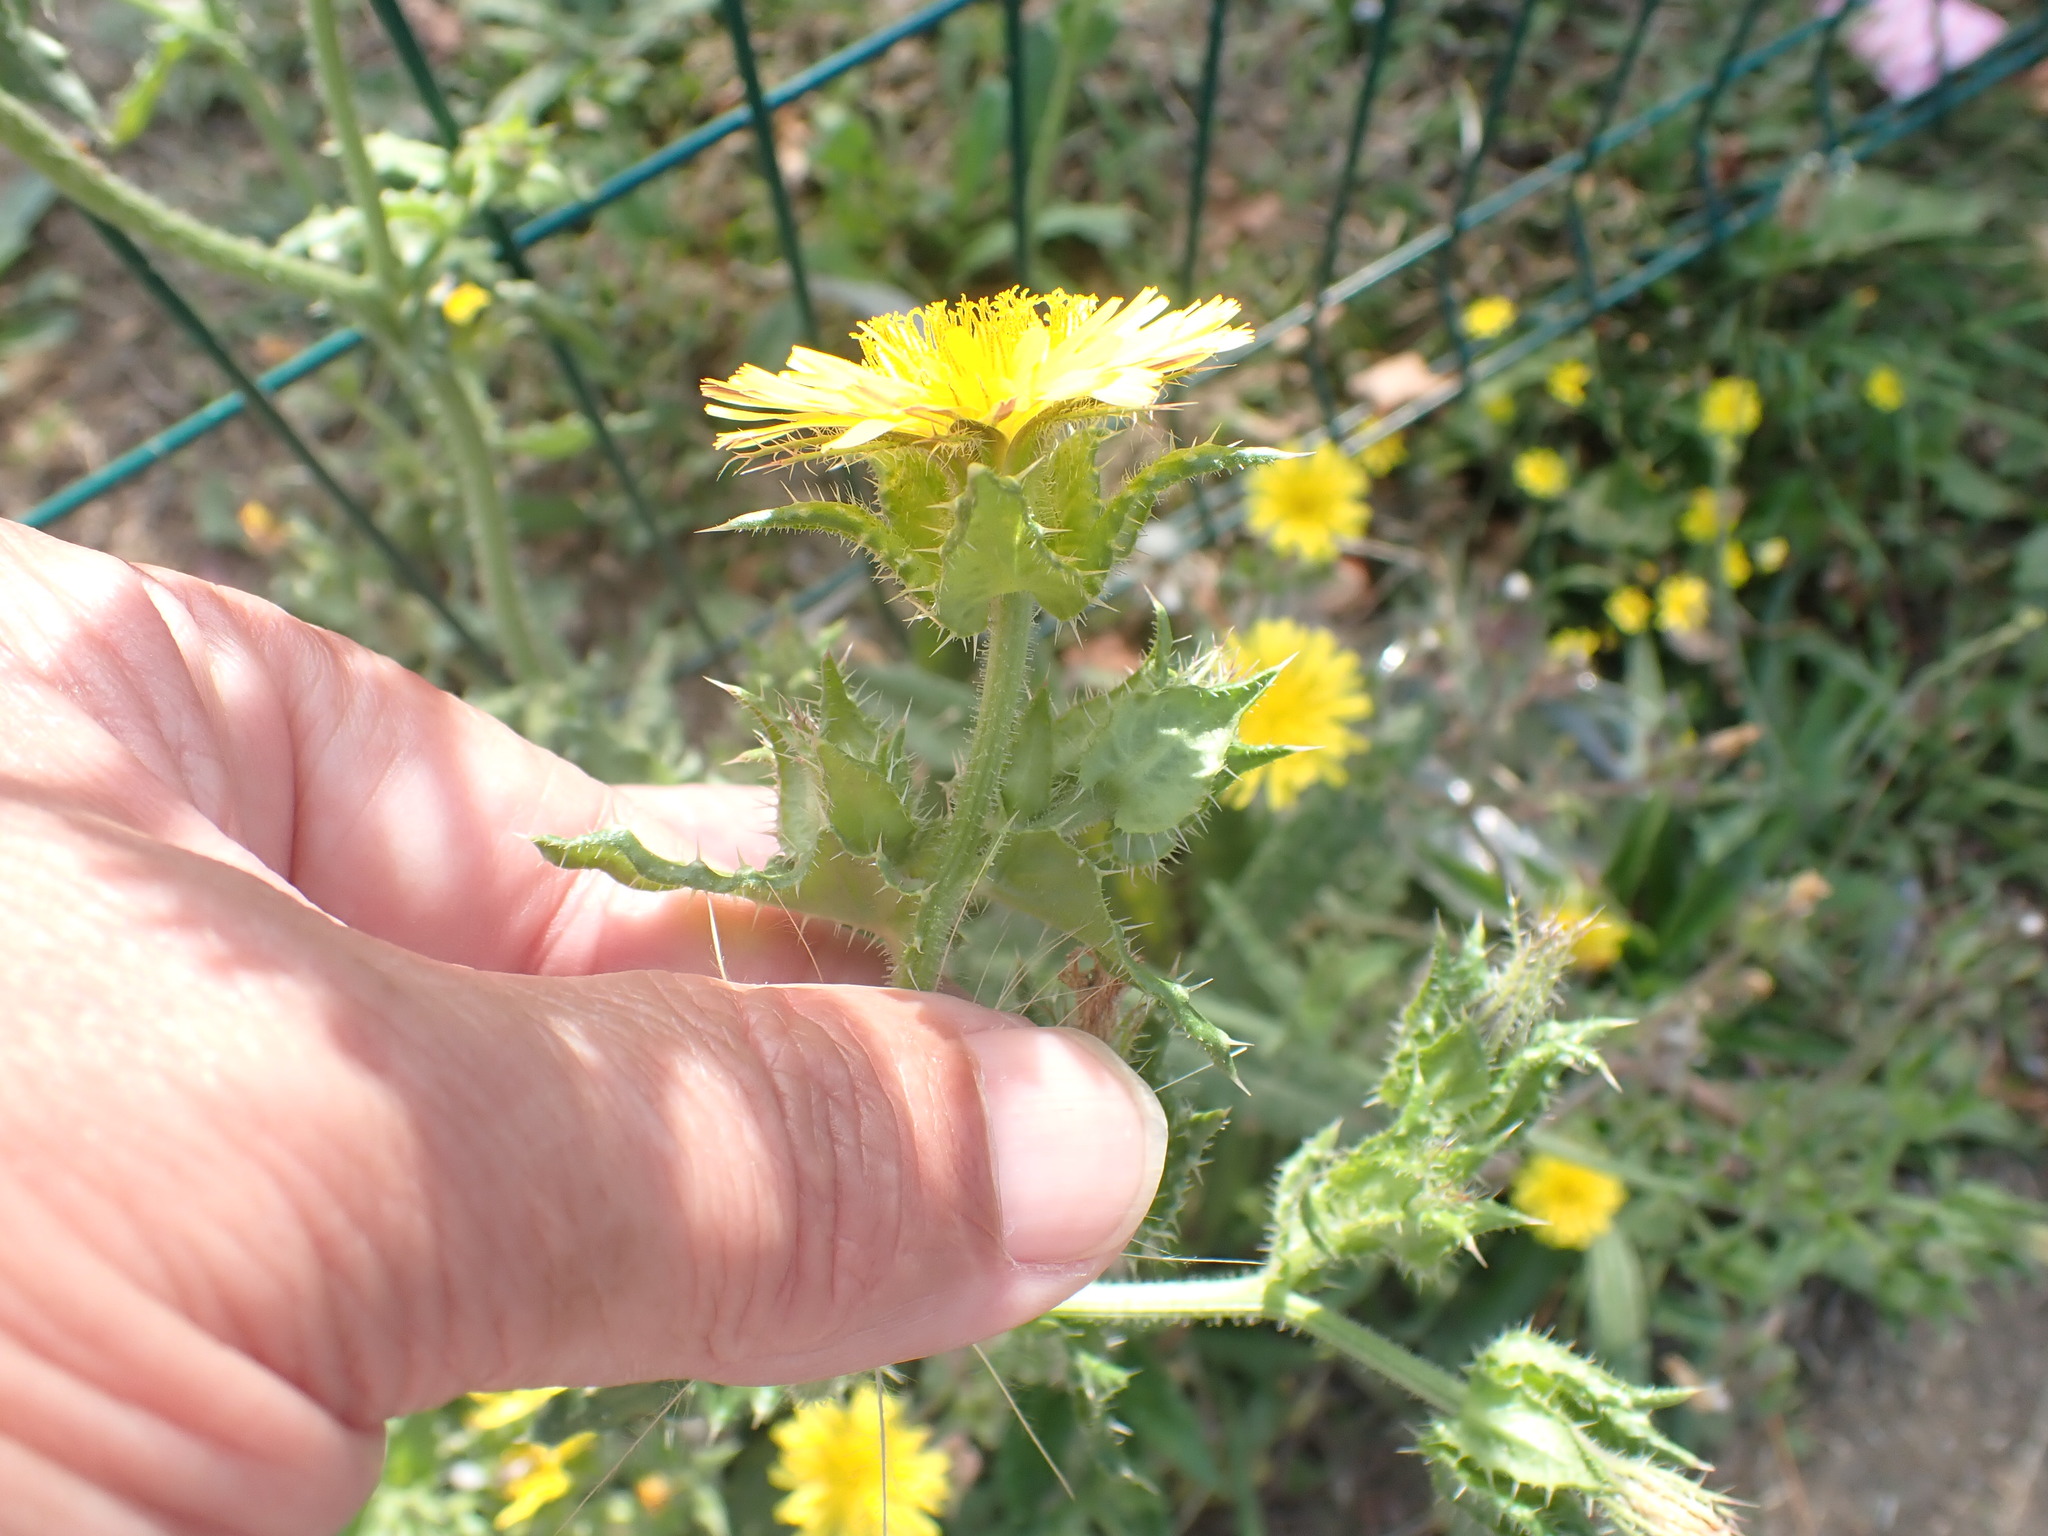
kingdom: Plantae
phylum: Tracheophyta
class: Magnoliopsida
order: Asterales
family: Asteraceae
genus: Helminthotheca
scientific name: Helminthotheca echioides
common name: Ox-tongue
